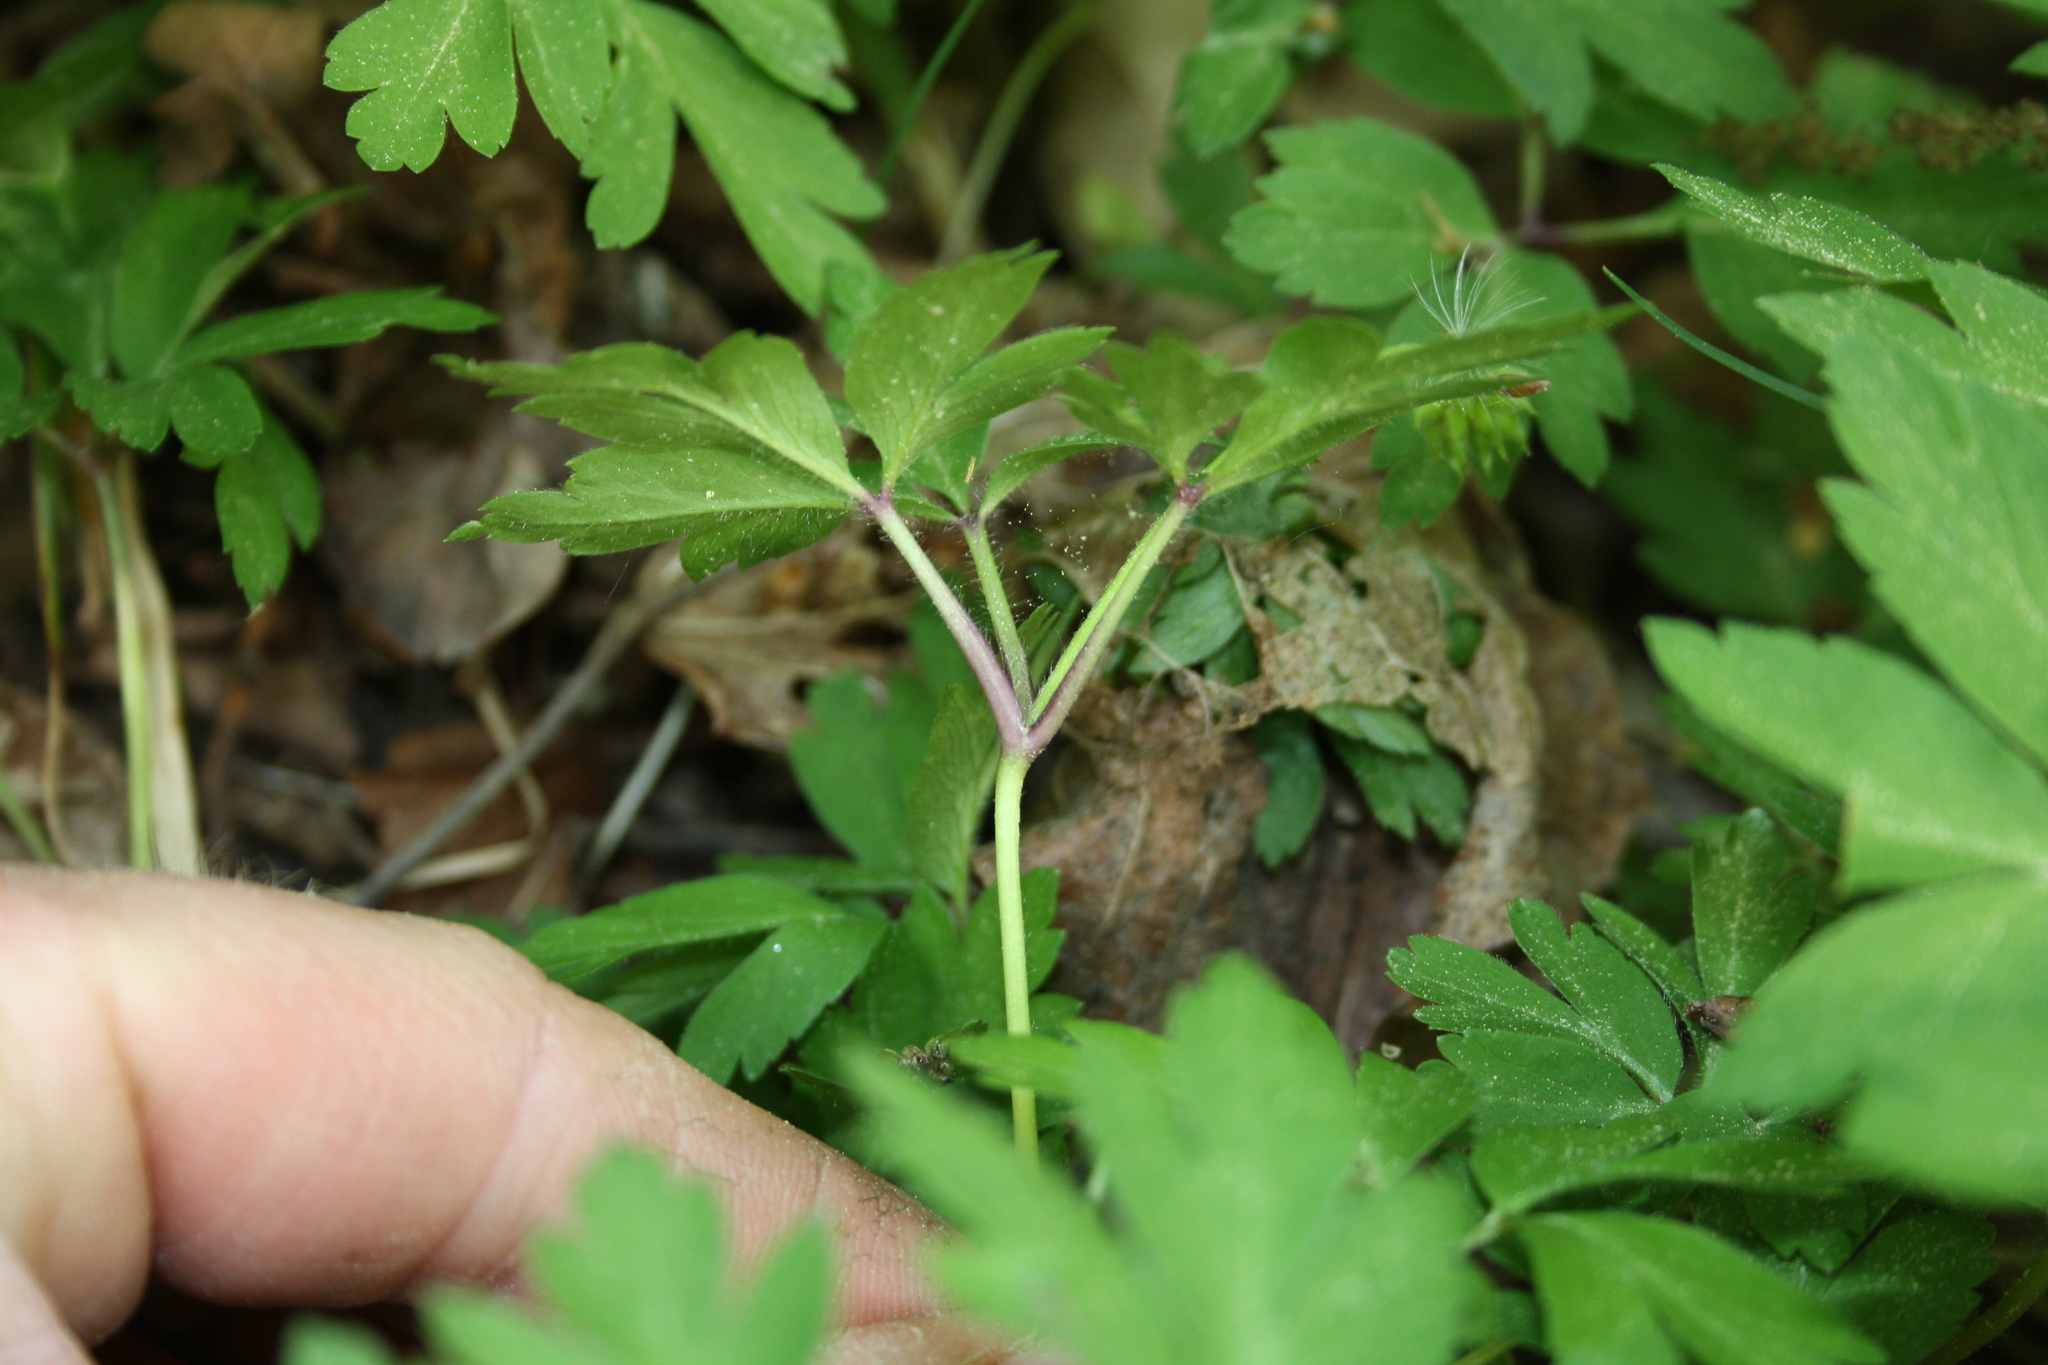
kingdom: Plantae
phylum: Tracheophyta
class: Magnoliopsida
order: Ranunculales
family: Ranunculaceae
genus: Anemone
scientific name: Anemone nemorosa
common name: Wood anemone
